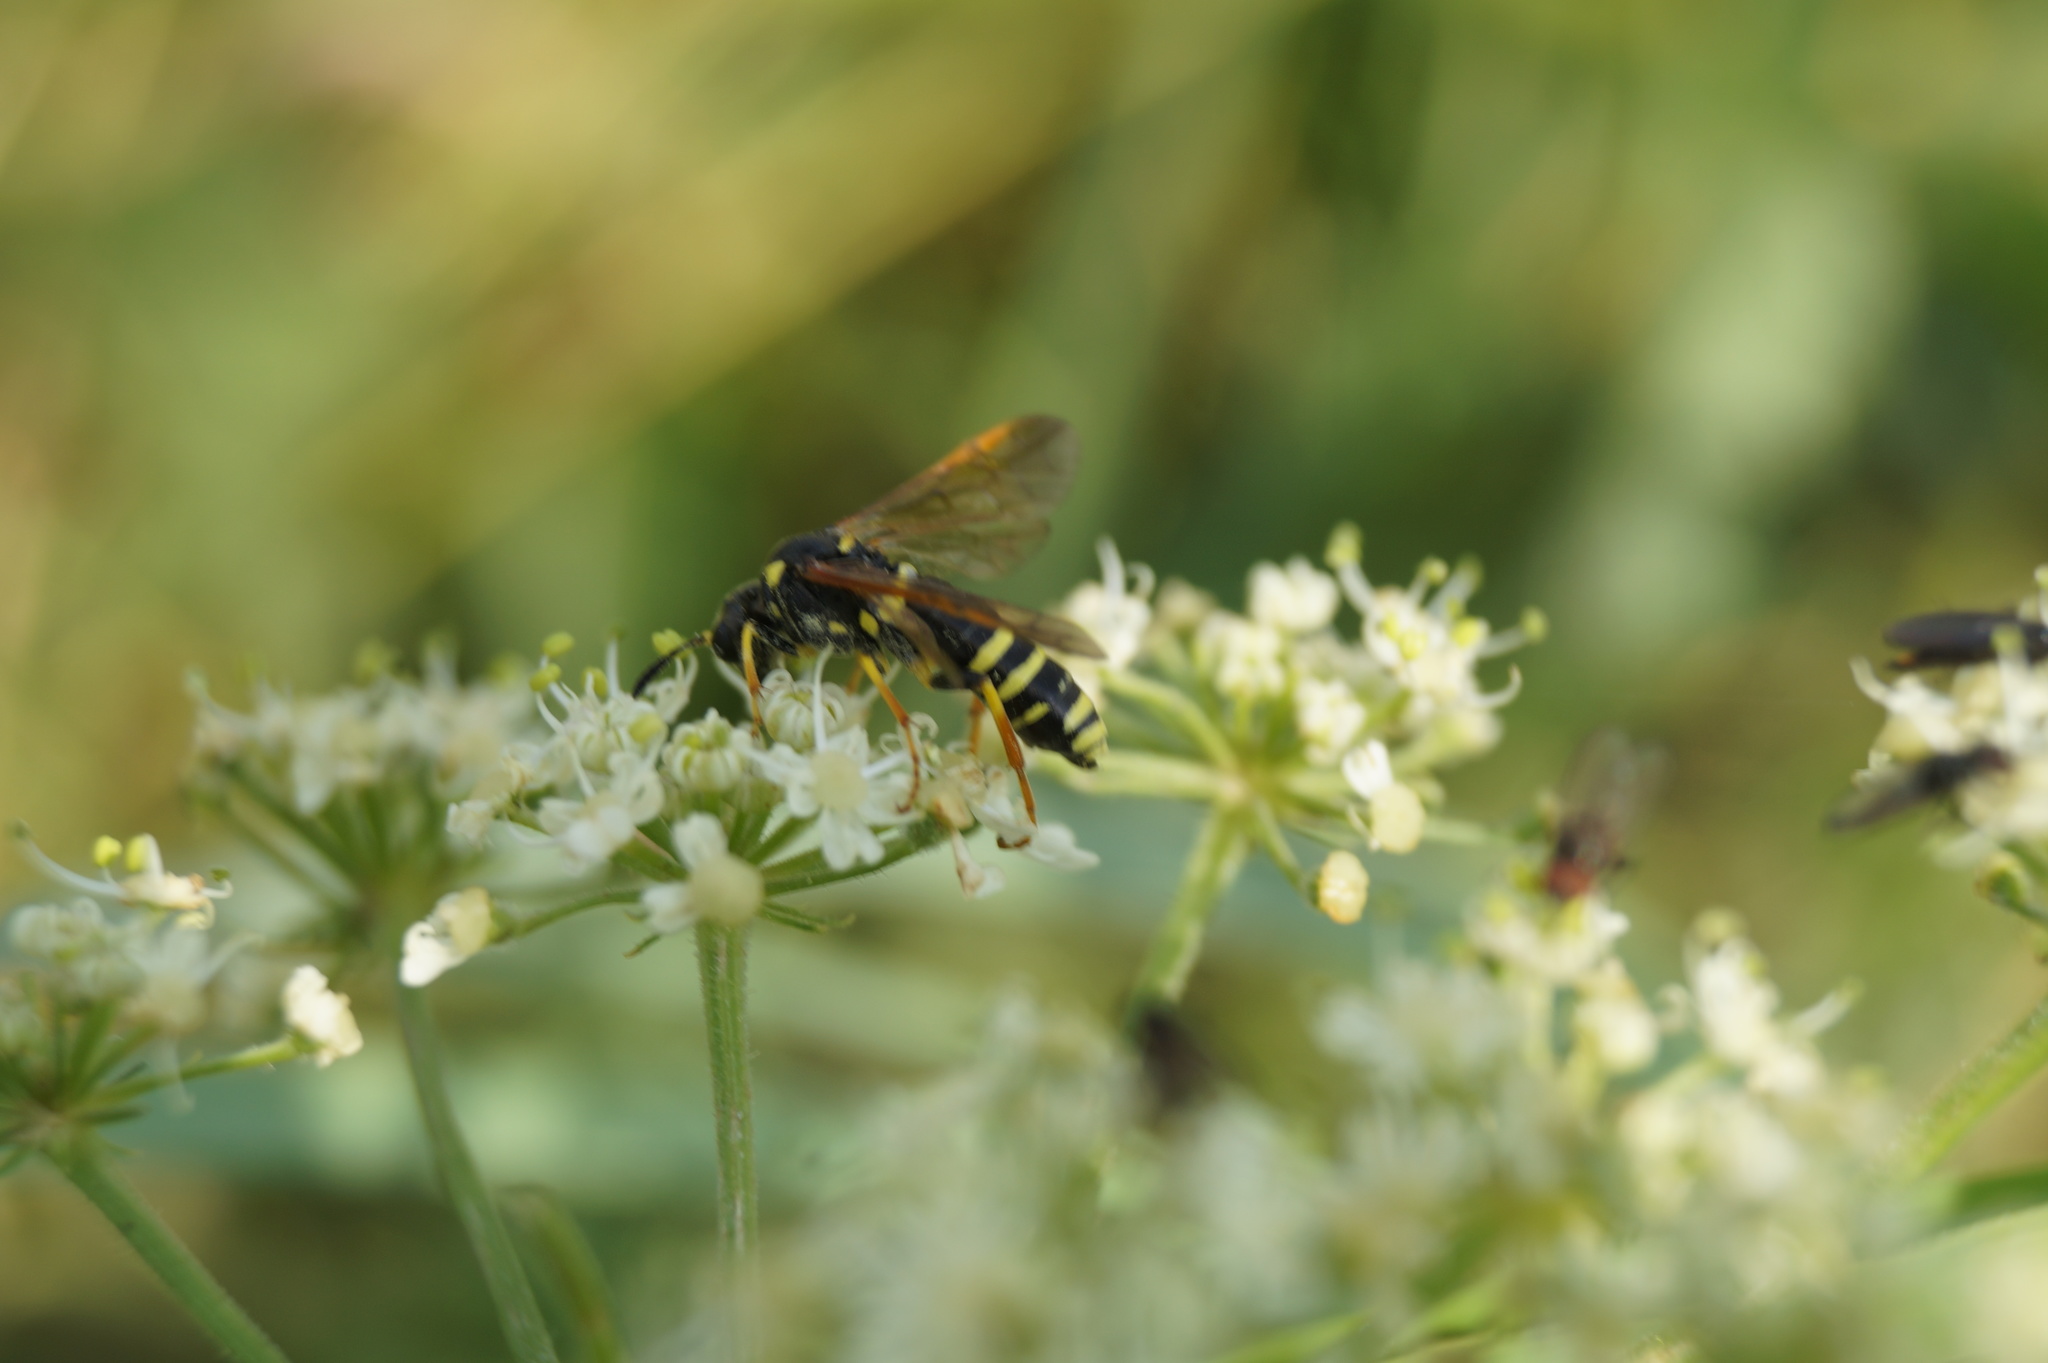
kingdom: Animalia
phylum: Arthropoda
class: Insecta
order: Hymenoptera
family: Tenthredinidae
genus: Tenthredo
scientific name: Tenthredo omissa
